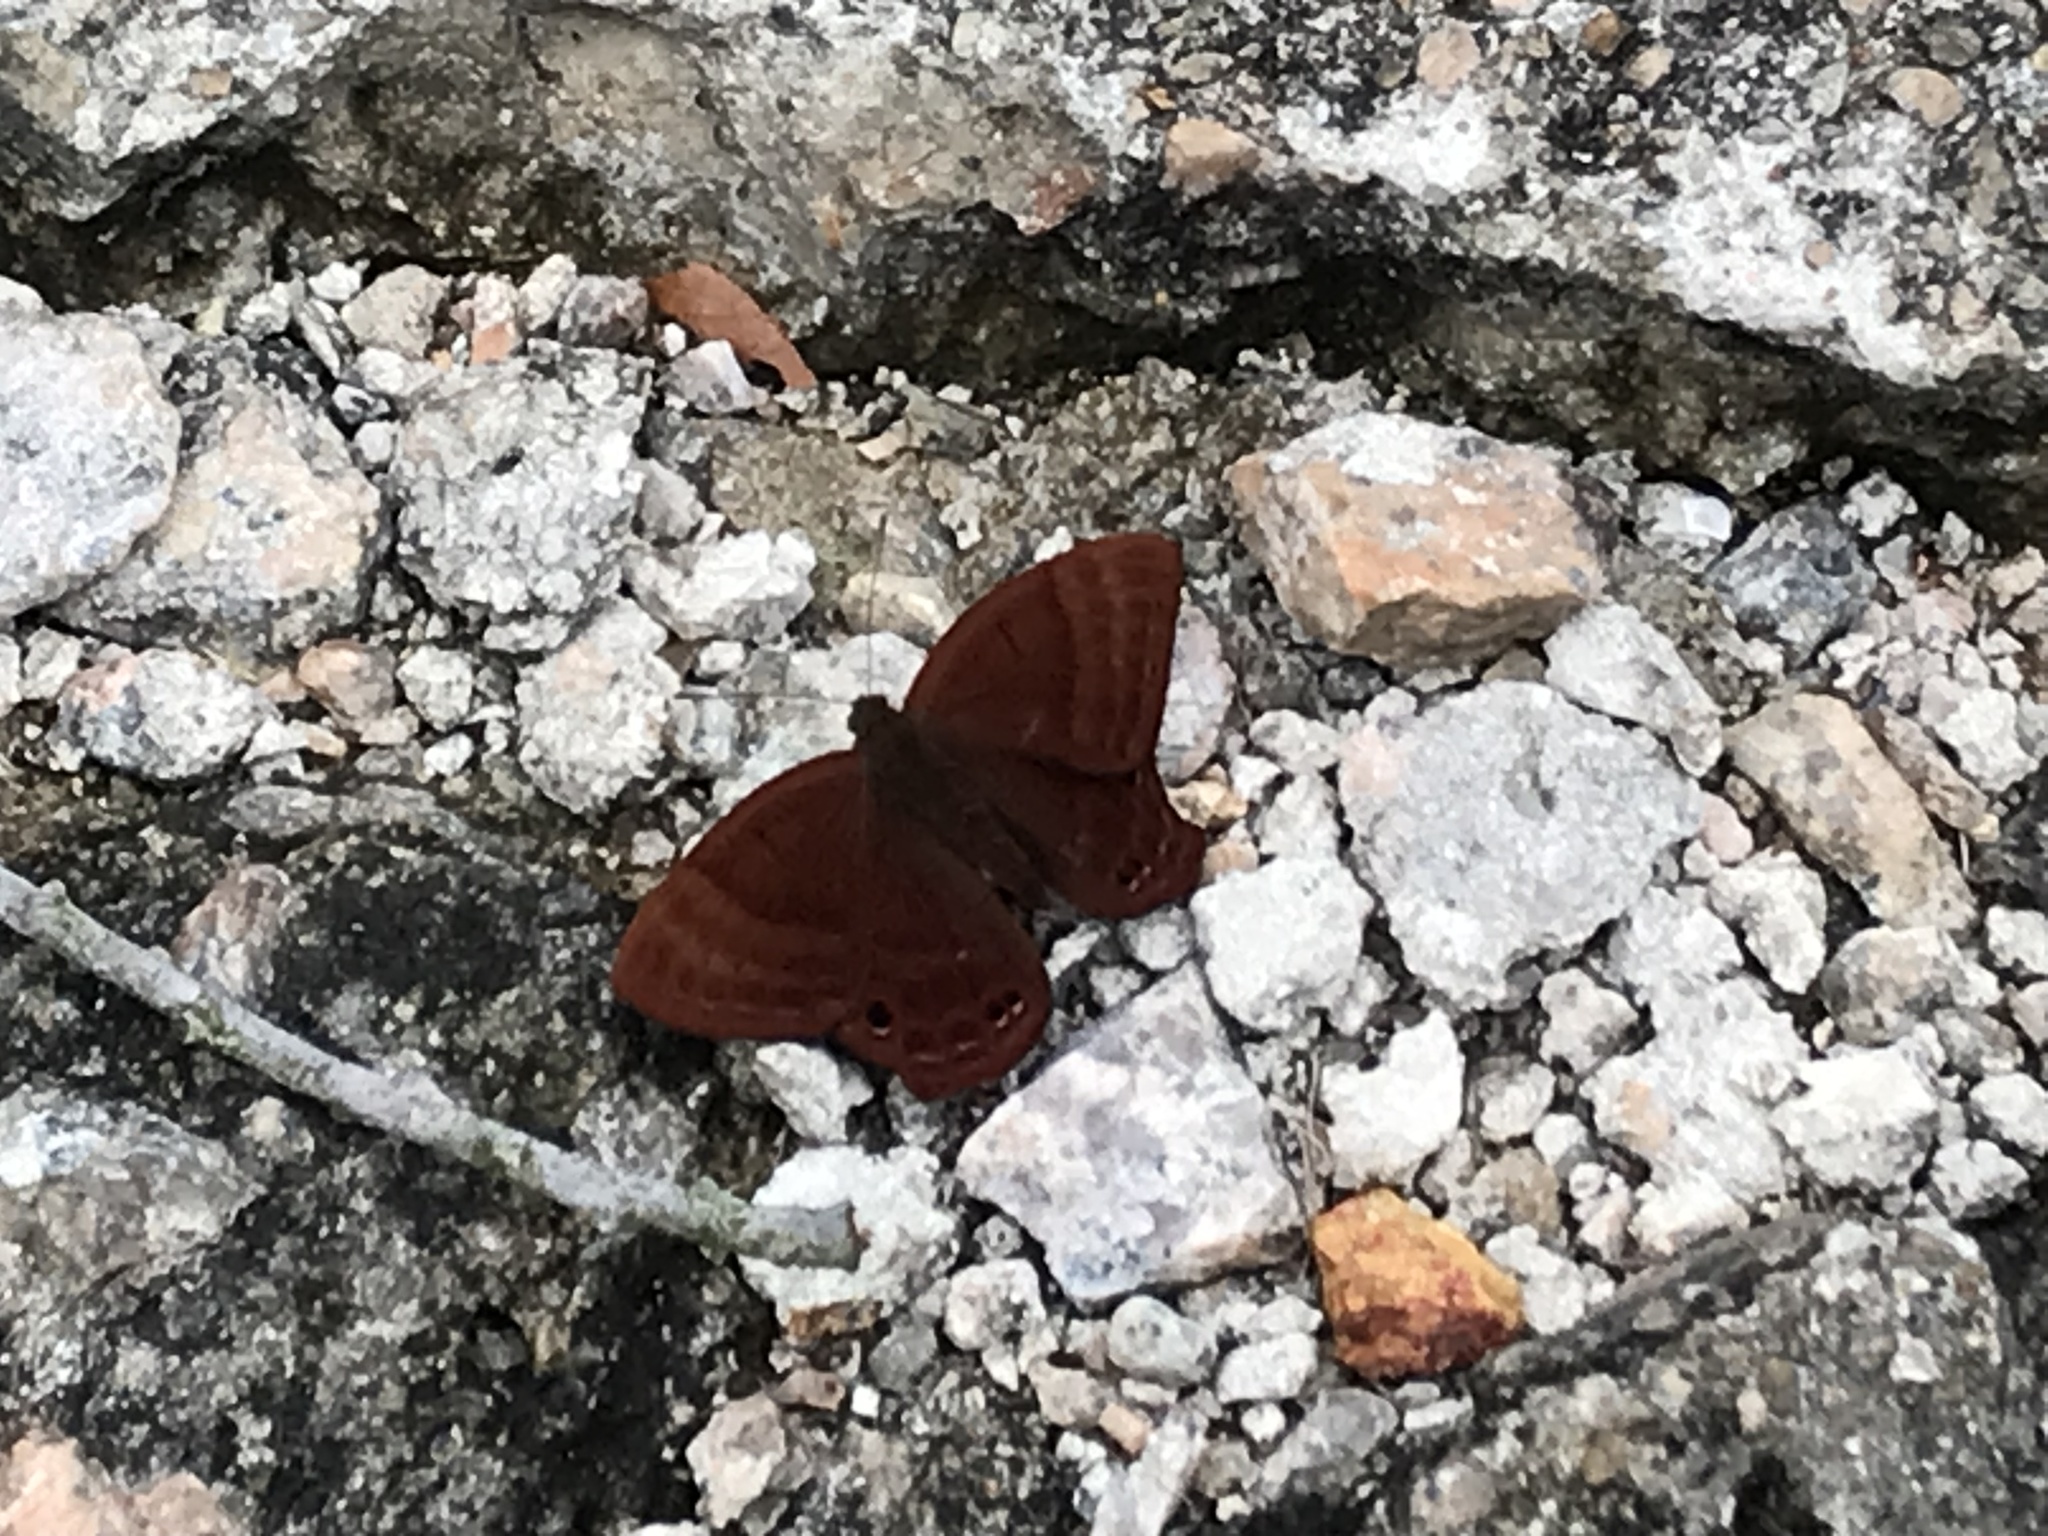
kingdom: Animalia
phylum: Arthropoda
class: Insecta
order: Lepidoptera
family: Lycaenidae
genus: Abisara
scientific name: Abisara echeria
